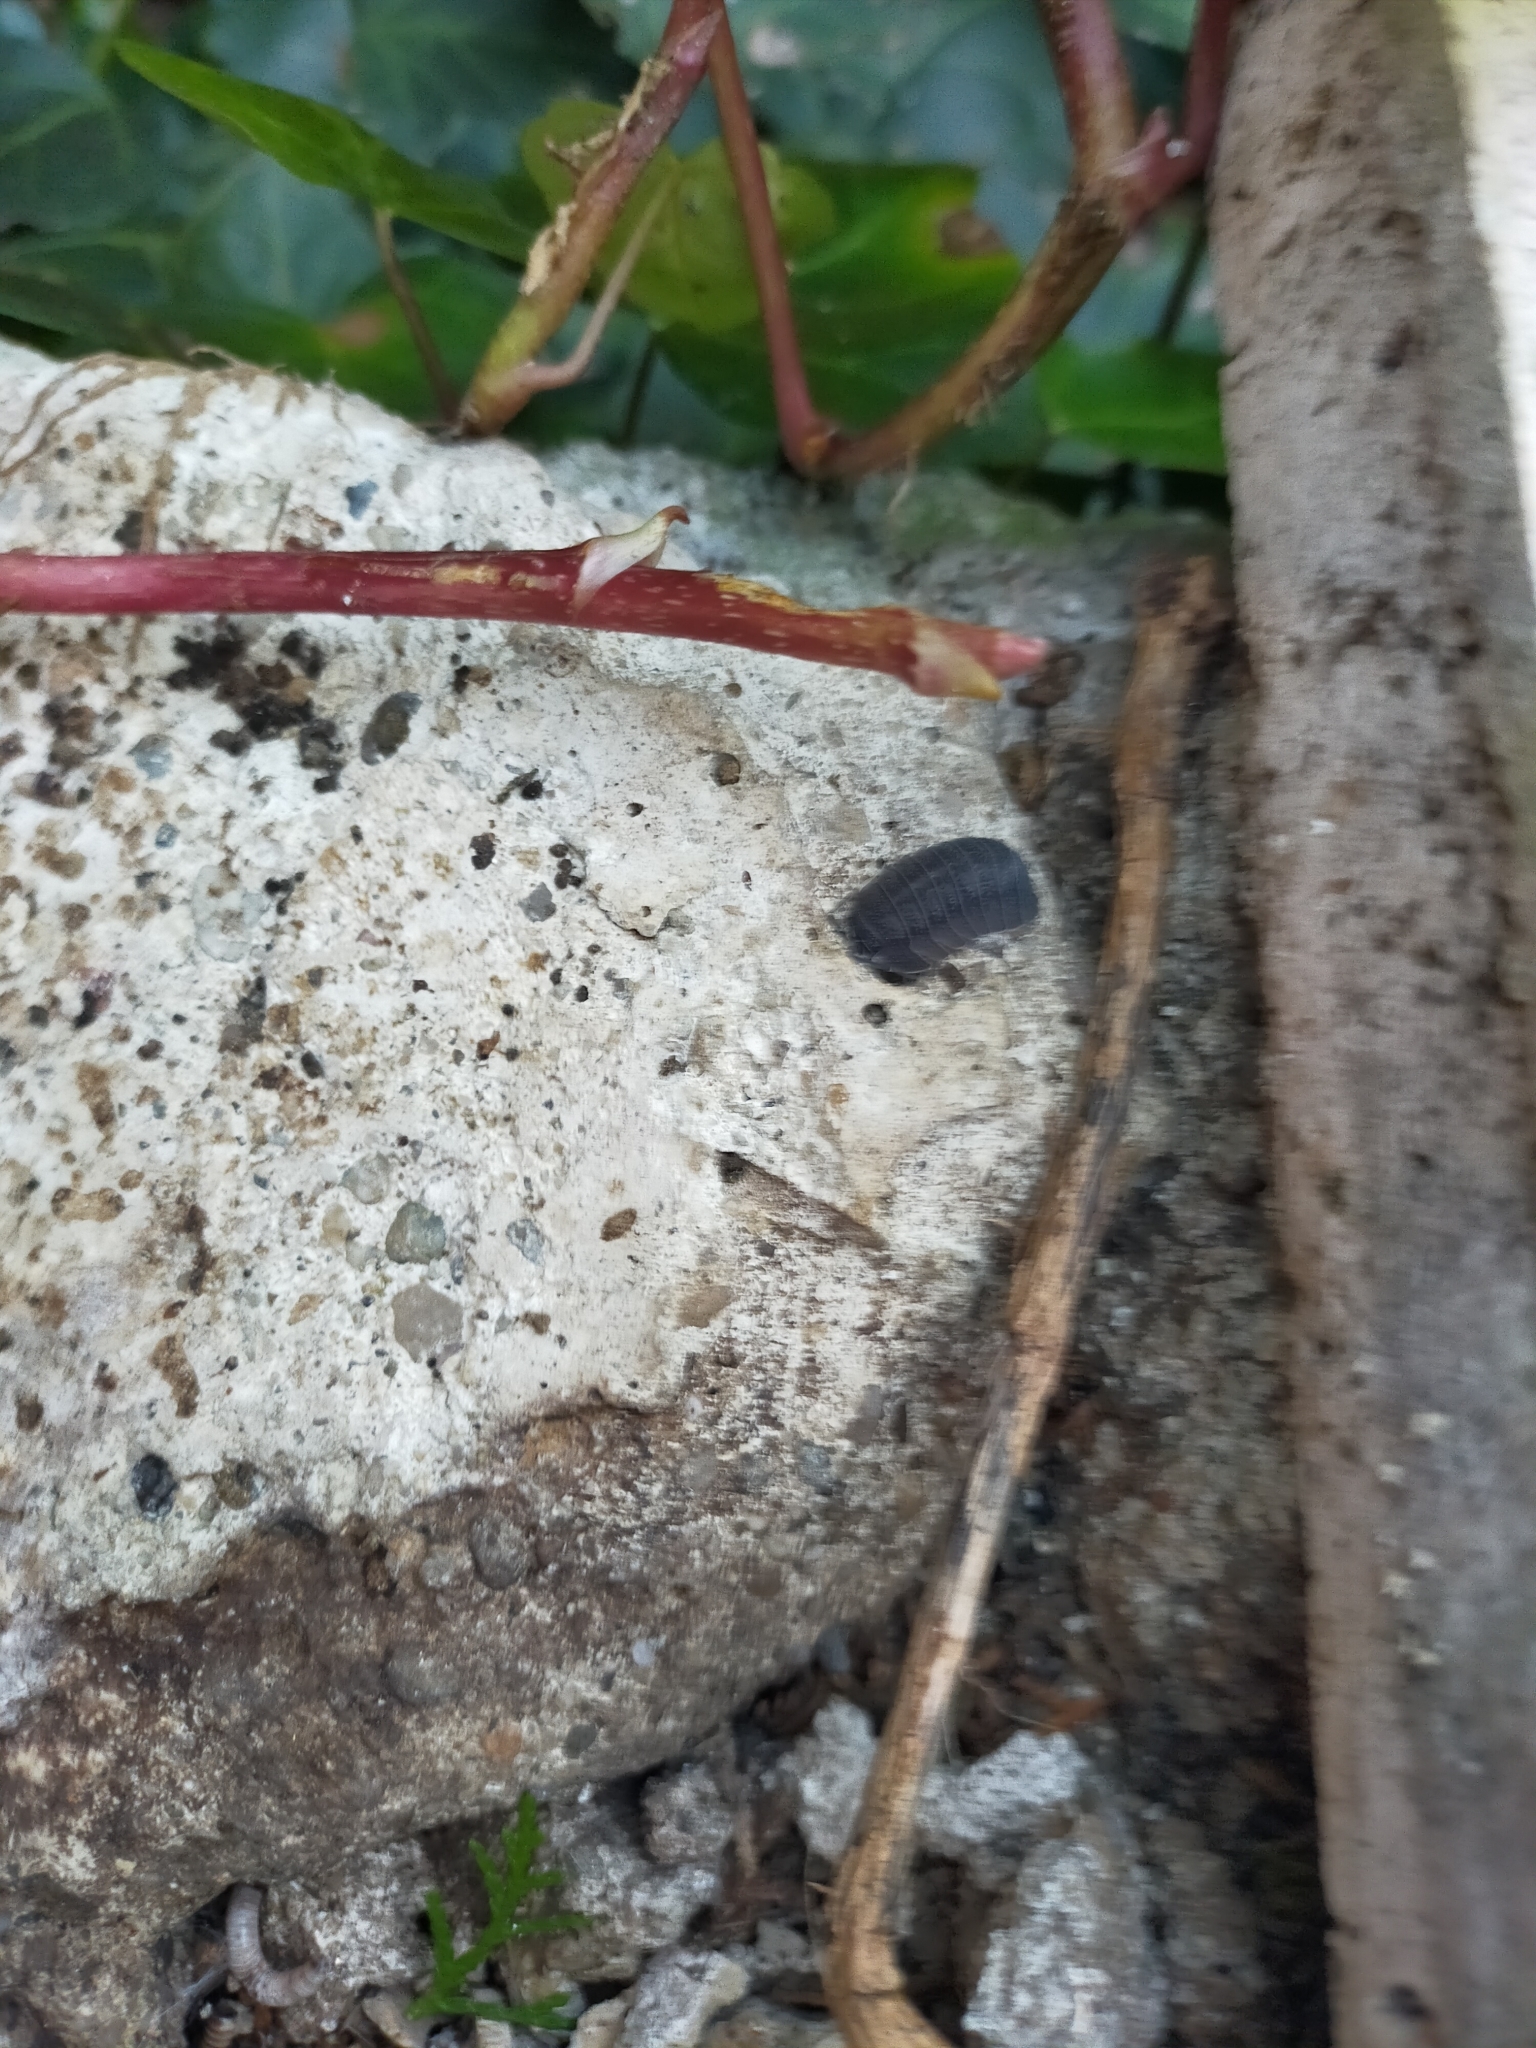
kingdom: Animalia
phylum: Arthropoda
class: Malacostraca
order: Isopoda
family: Armadillidiidae
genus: Armadillidium
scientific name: Armadillidium
